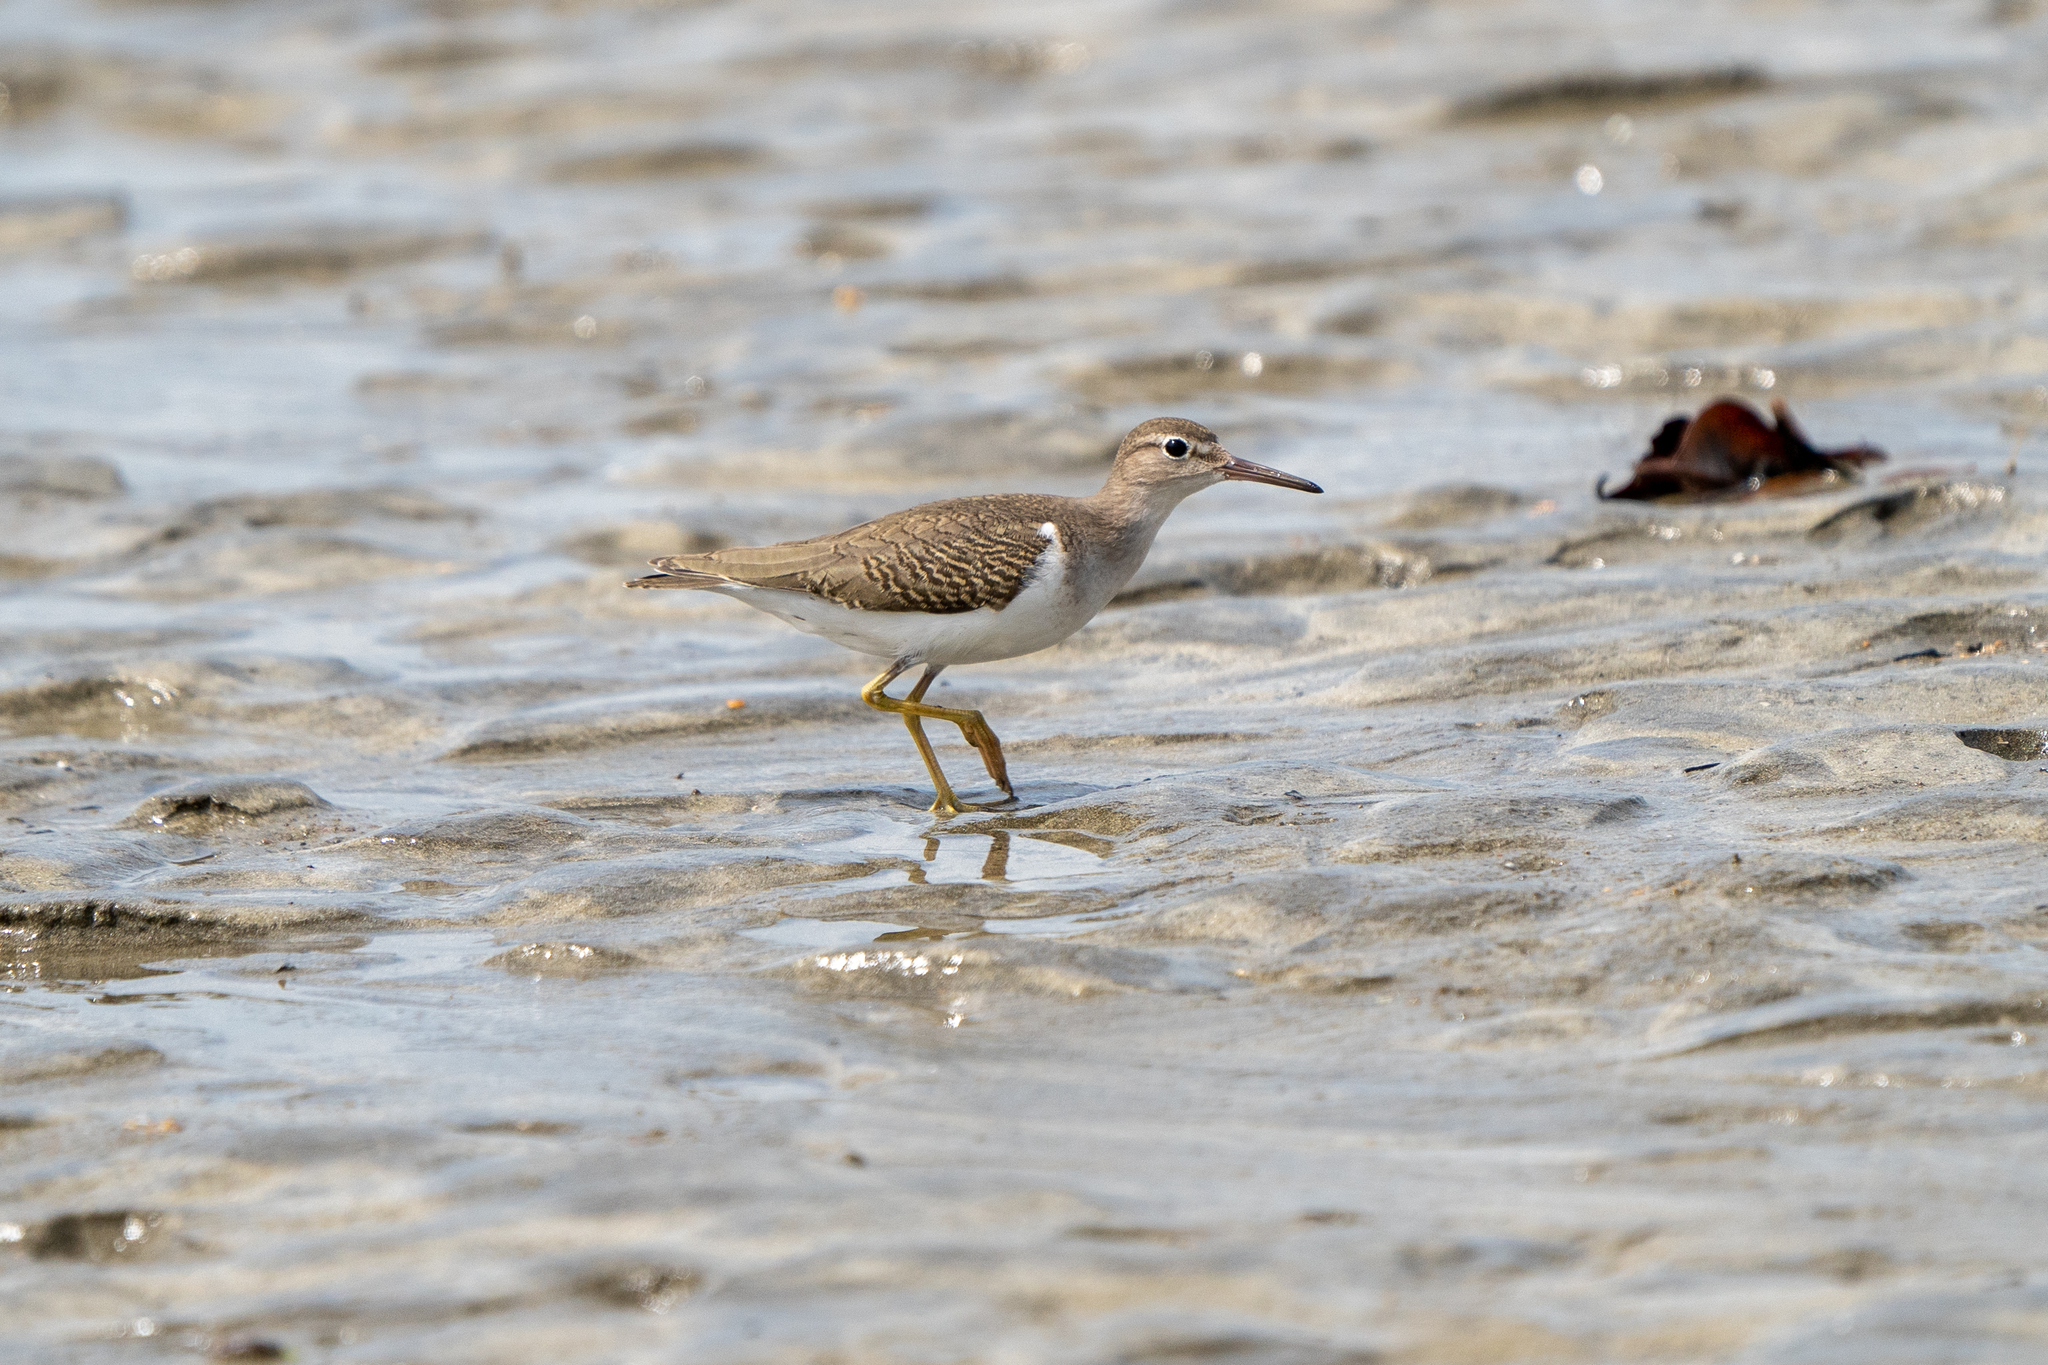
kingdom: Animalia
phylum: Chordata
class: Aves
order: Charadriiformes
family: Scolopacidae
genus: Actitis
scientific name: Actitis macularius
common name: Spotted sandpiper
